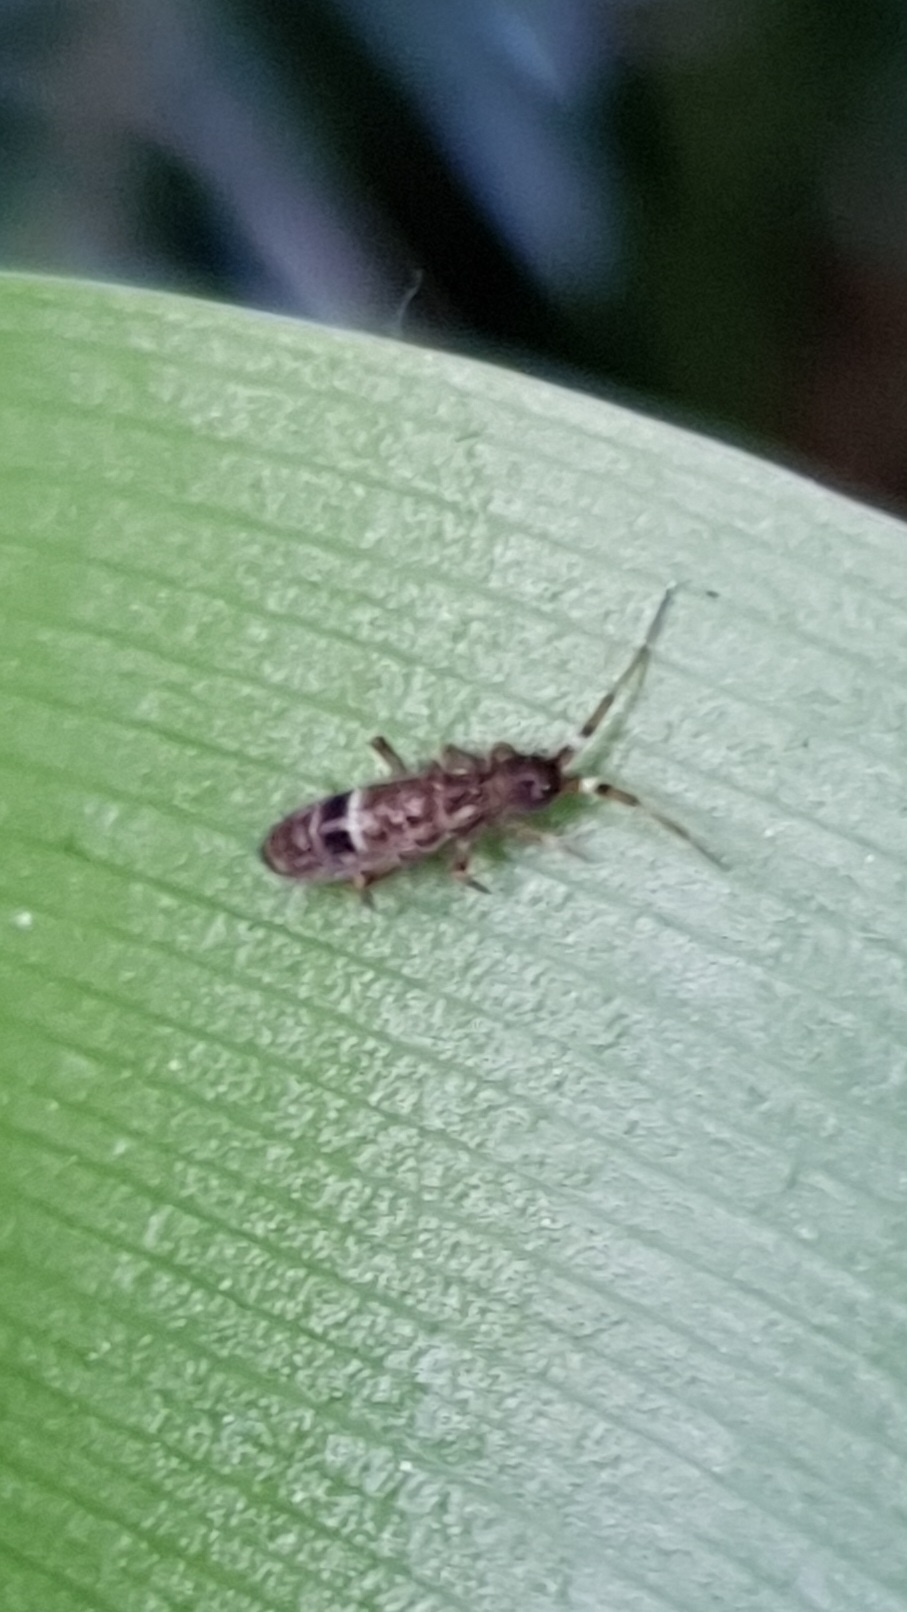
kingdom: Animalia
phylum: Arthropoda
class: Collembola
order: Entomobryomorpha
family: Orchesellidae
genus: Orchesella
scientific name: Orchesella cincta
